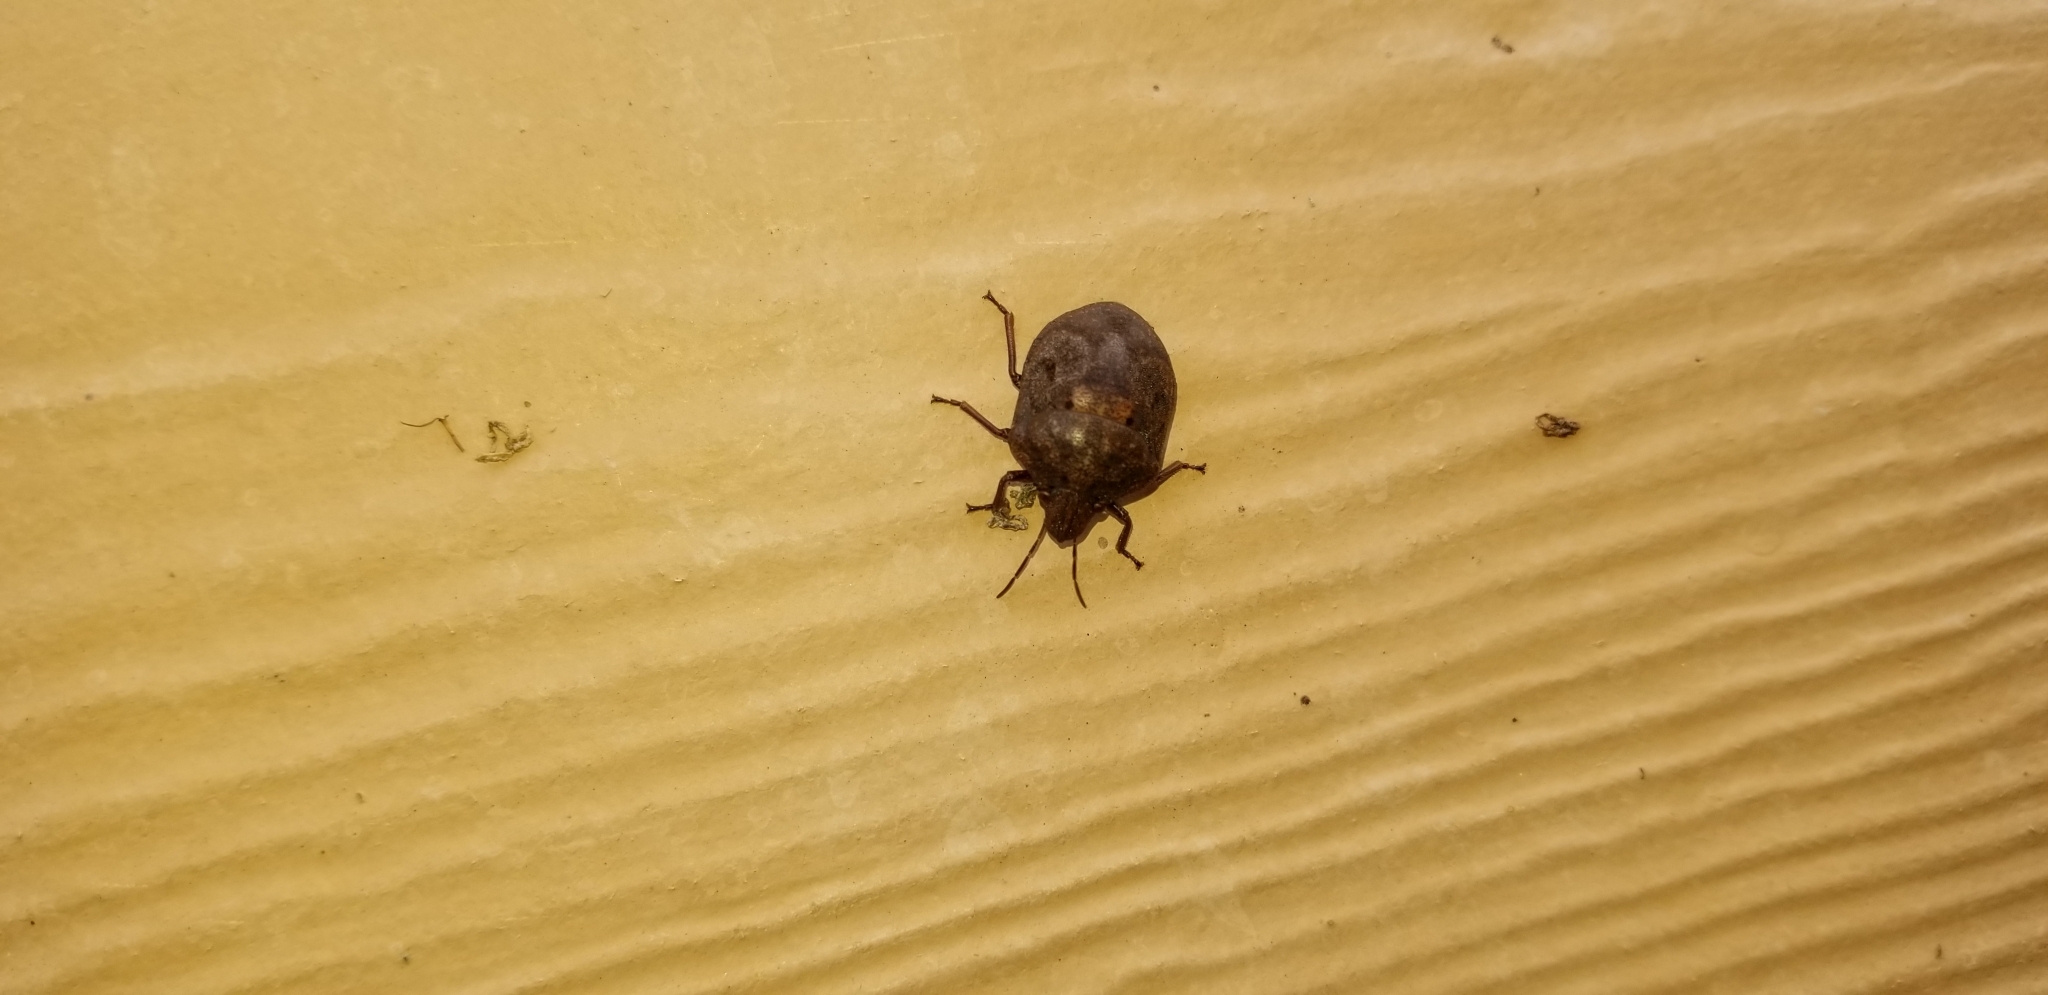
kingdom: Animalia
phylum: Arthropoda
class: Insecta
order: Hemiptera
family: Scutelleridae
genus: Tetyra
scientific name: Tetyra bipunctata
